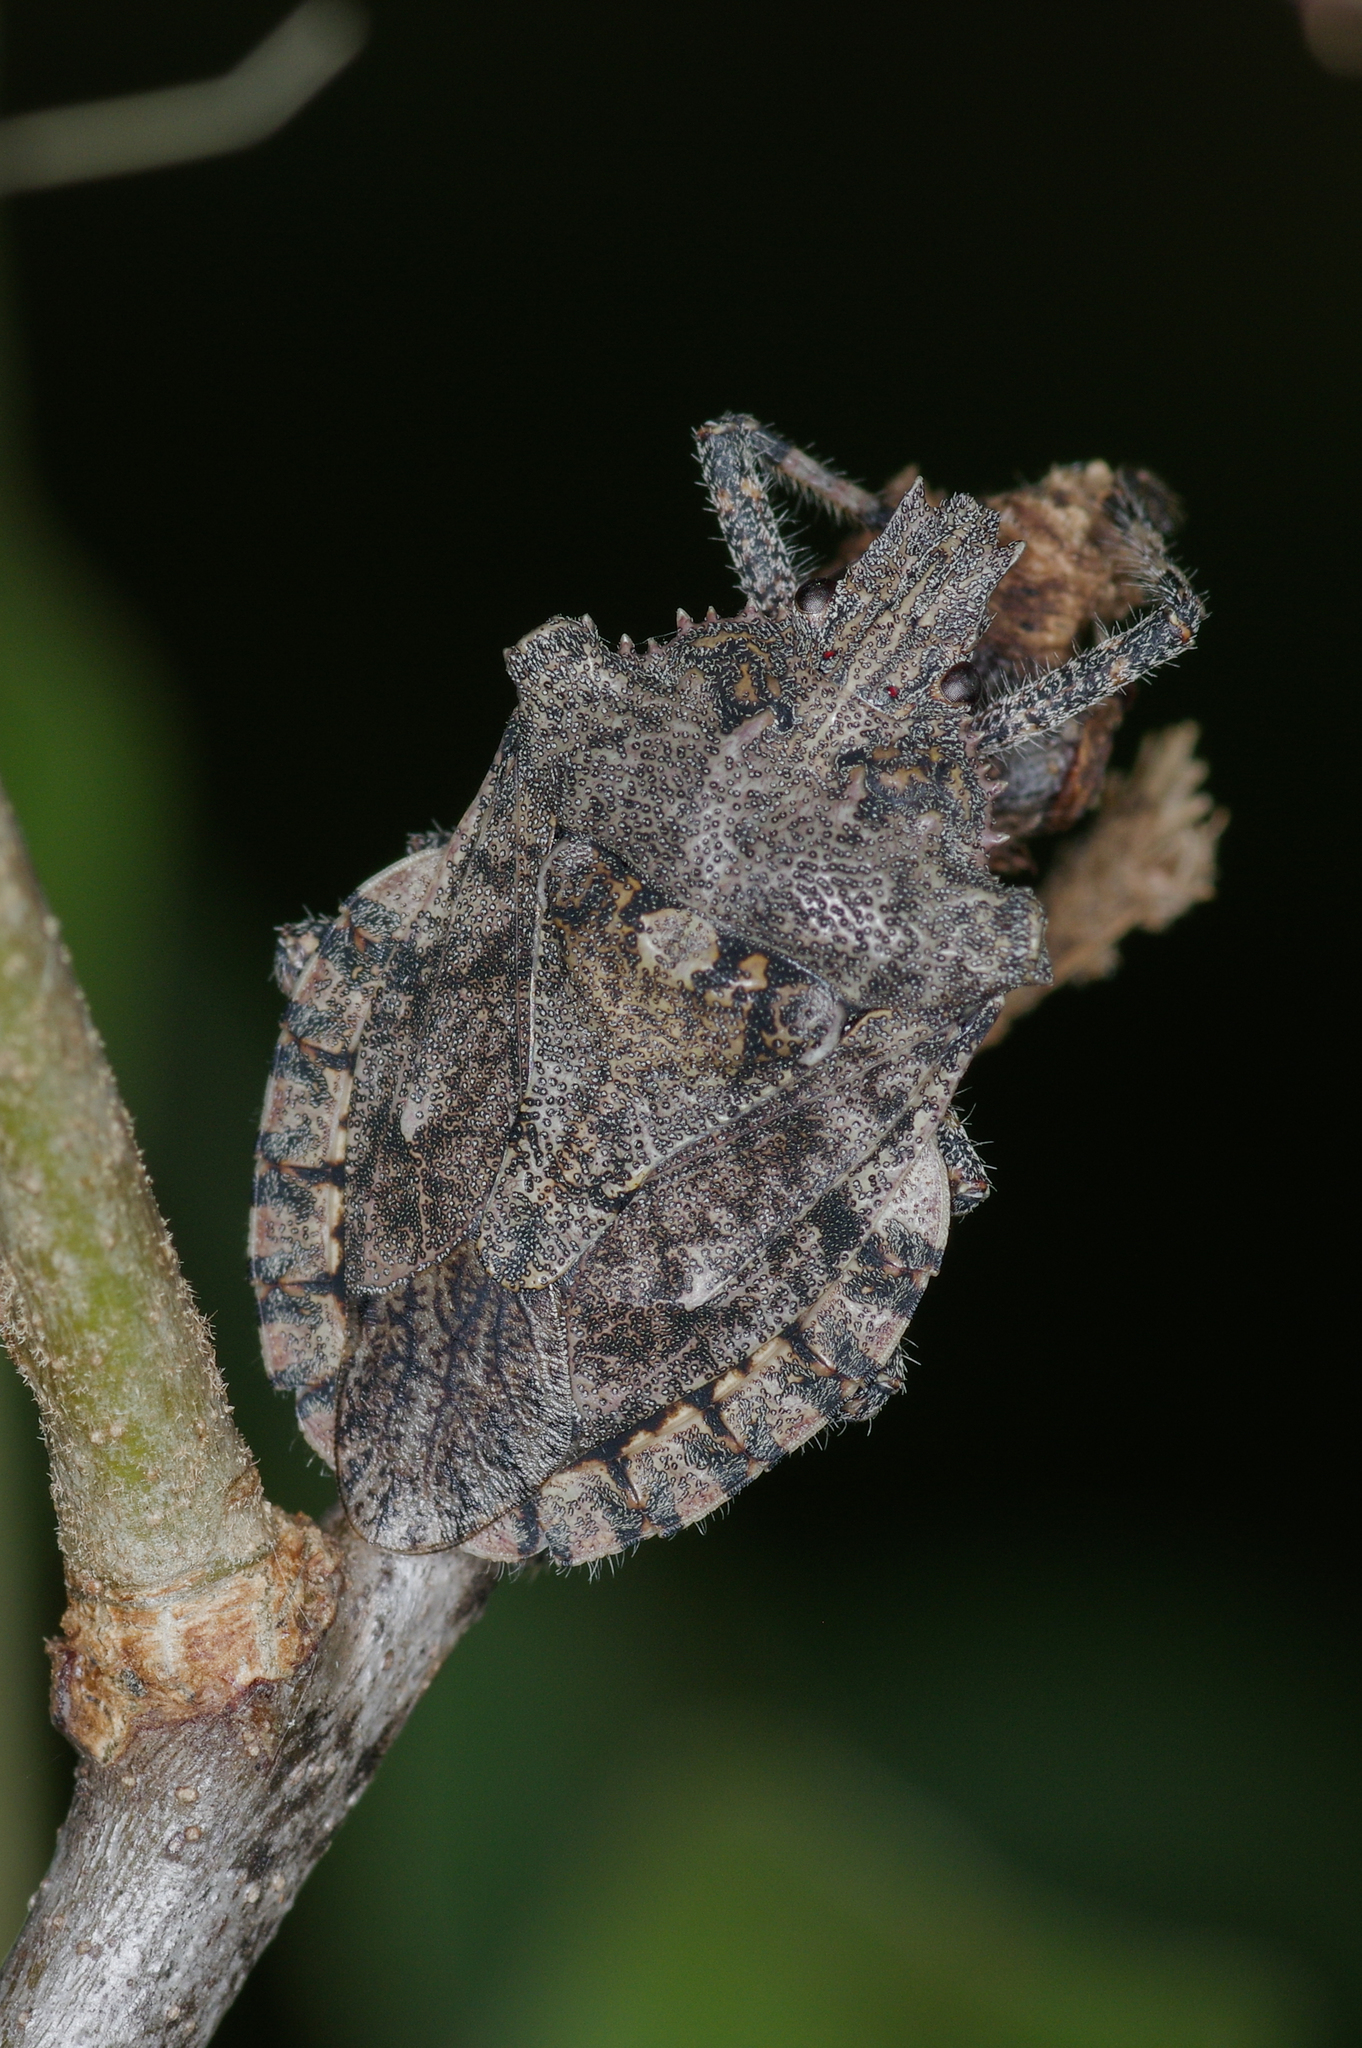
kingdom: Animalia
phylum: Arthropoda
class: Insecta
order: Hemiptera
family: Pentatomidae
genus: Brochymena
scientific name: Brochymena arborea
